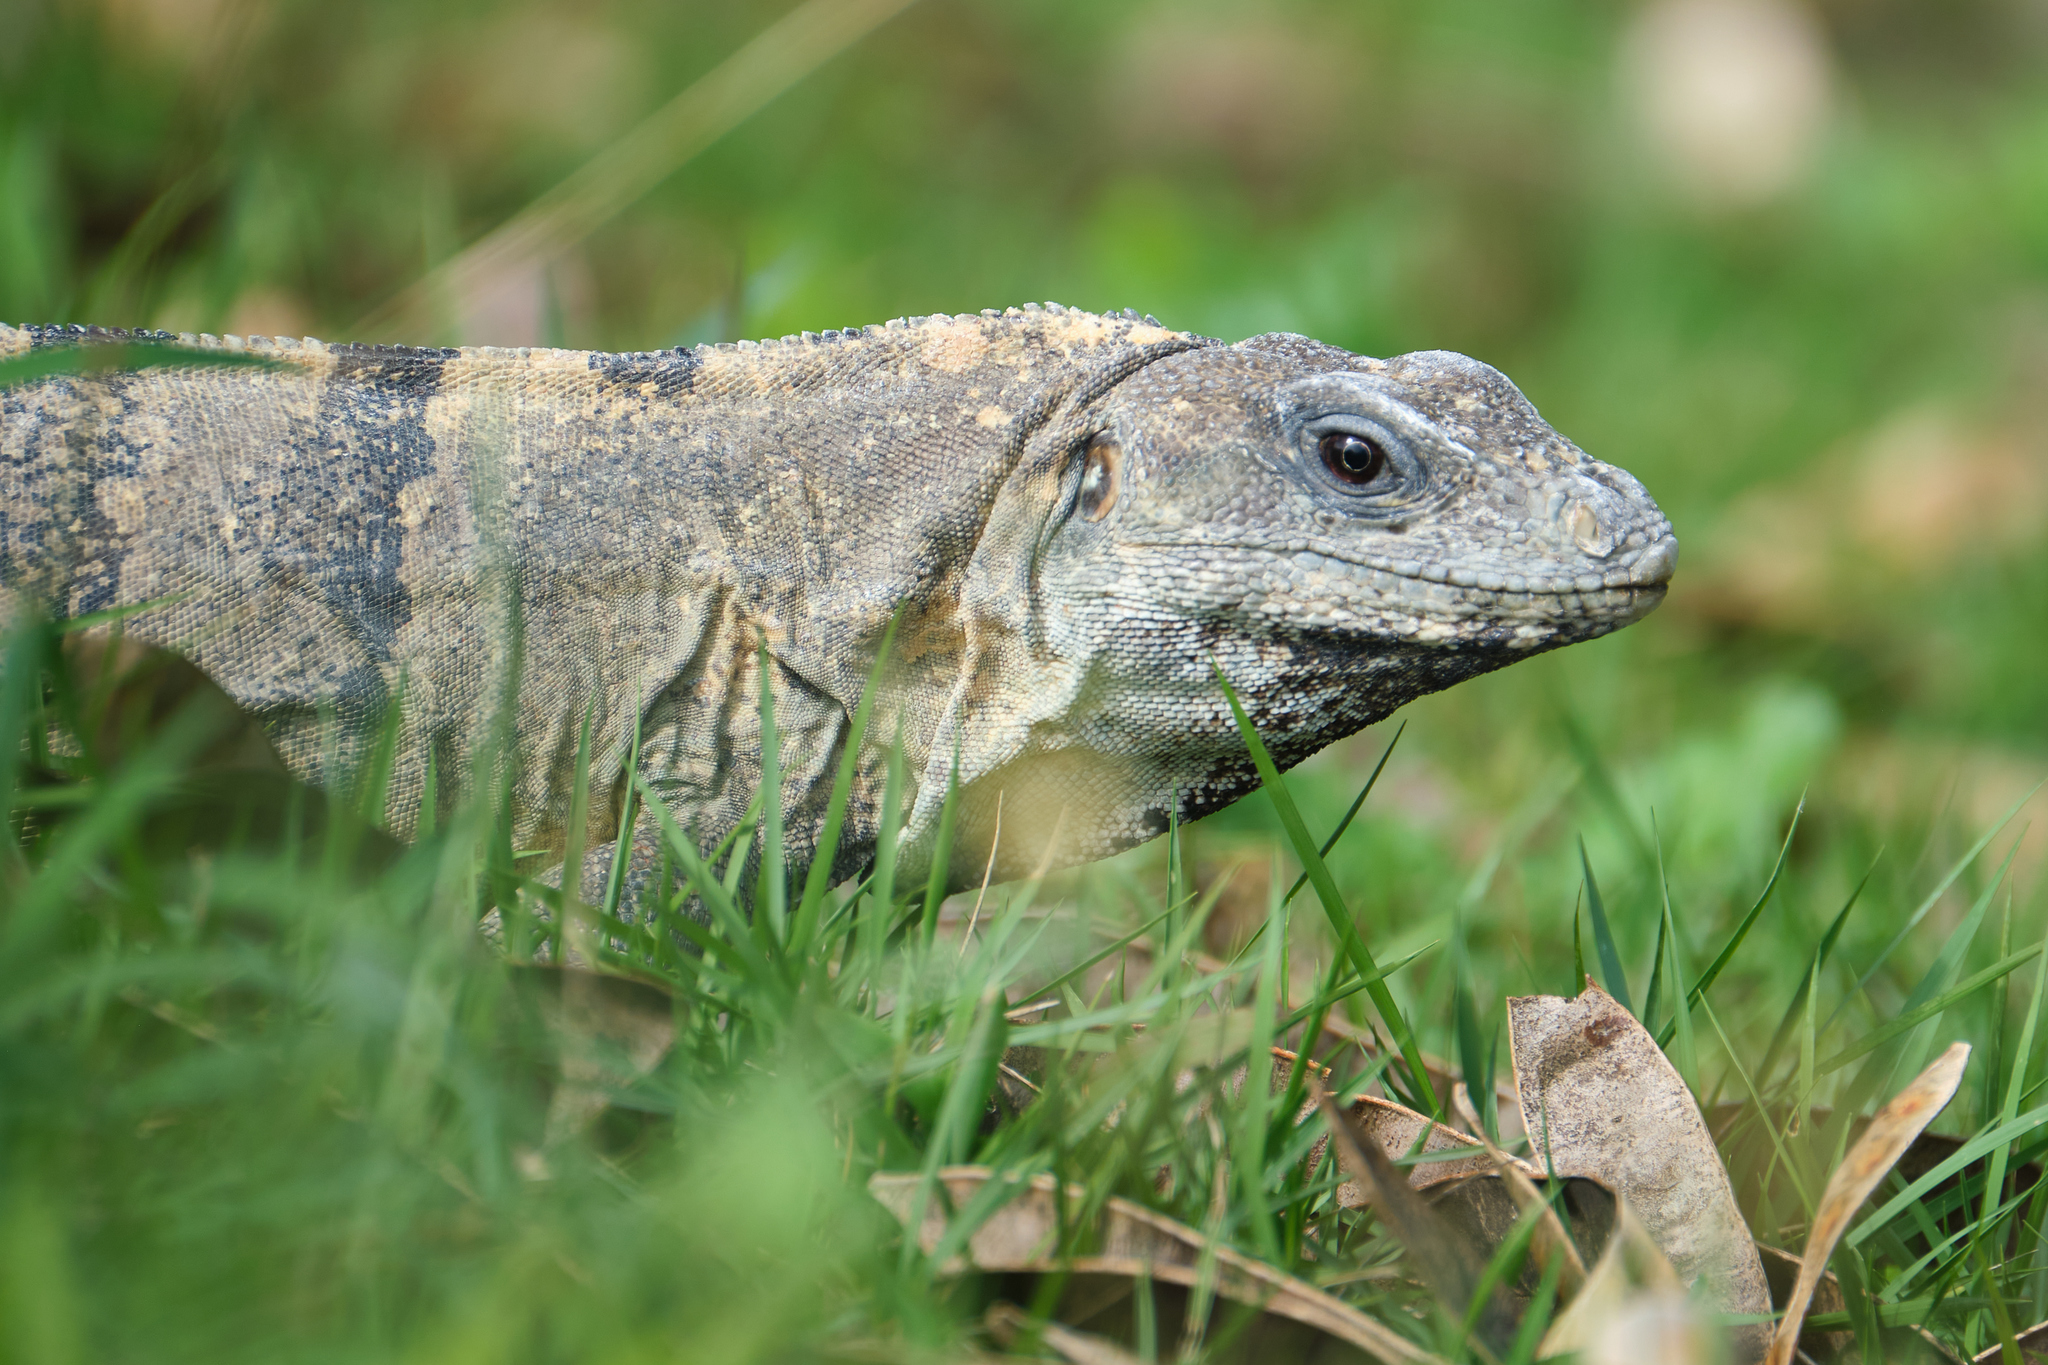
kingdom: Animalia
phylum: Chordata
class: Squamata
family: Iguanidae
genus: Ctenosaura
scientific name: Ctenosaura similis
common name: Black spiny-tailed iguana
